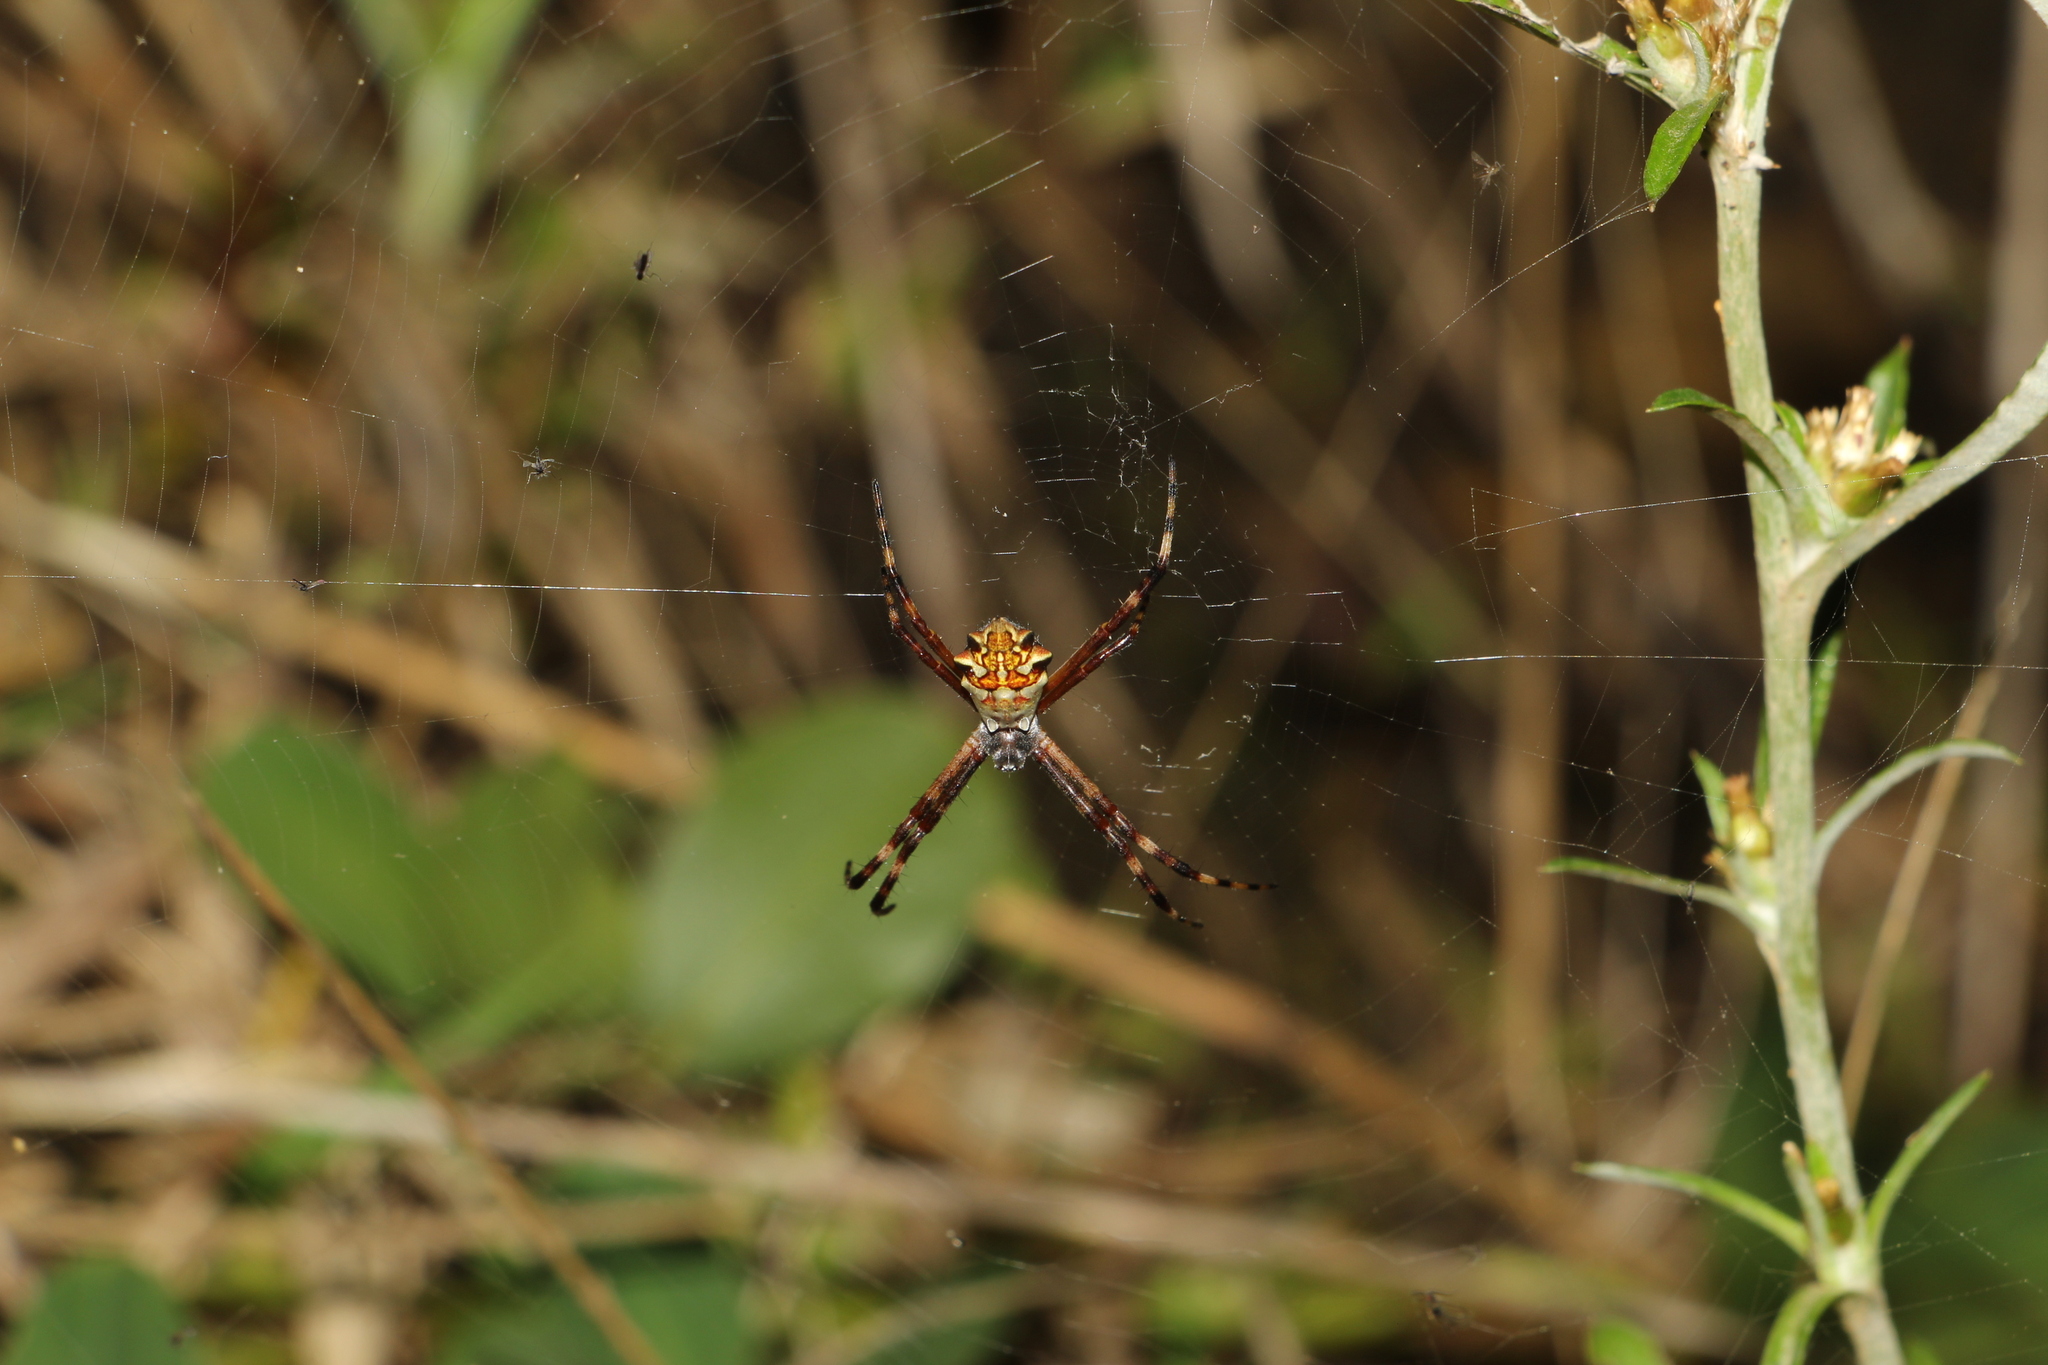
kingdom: Animalia
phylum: Arthropoda
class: Arachnida
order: Araneae
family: Araneidae
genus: Argiope
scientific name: Argiope argentata
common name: Orb weavers
